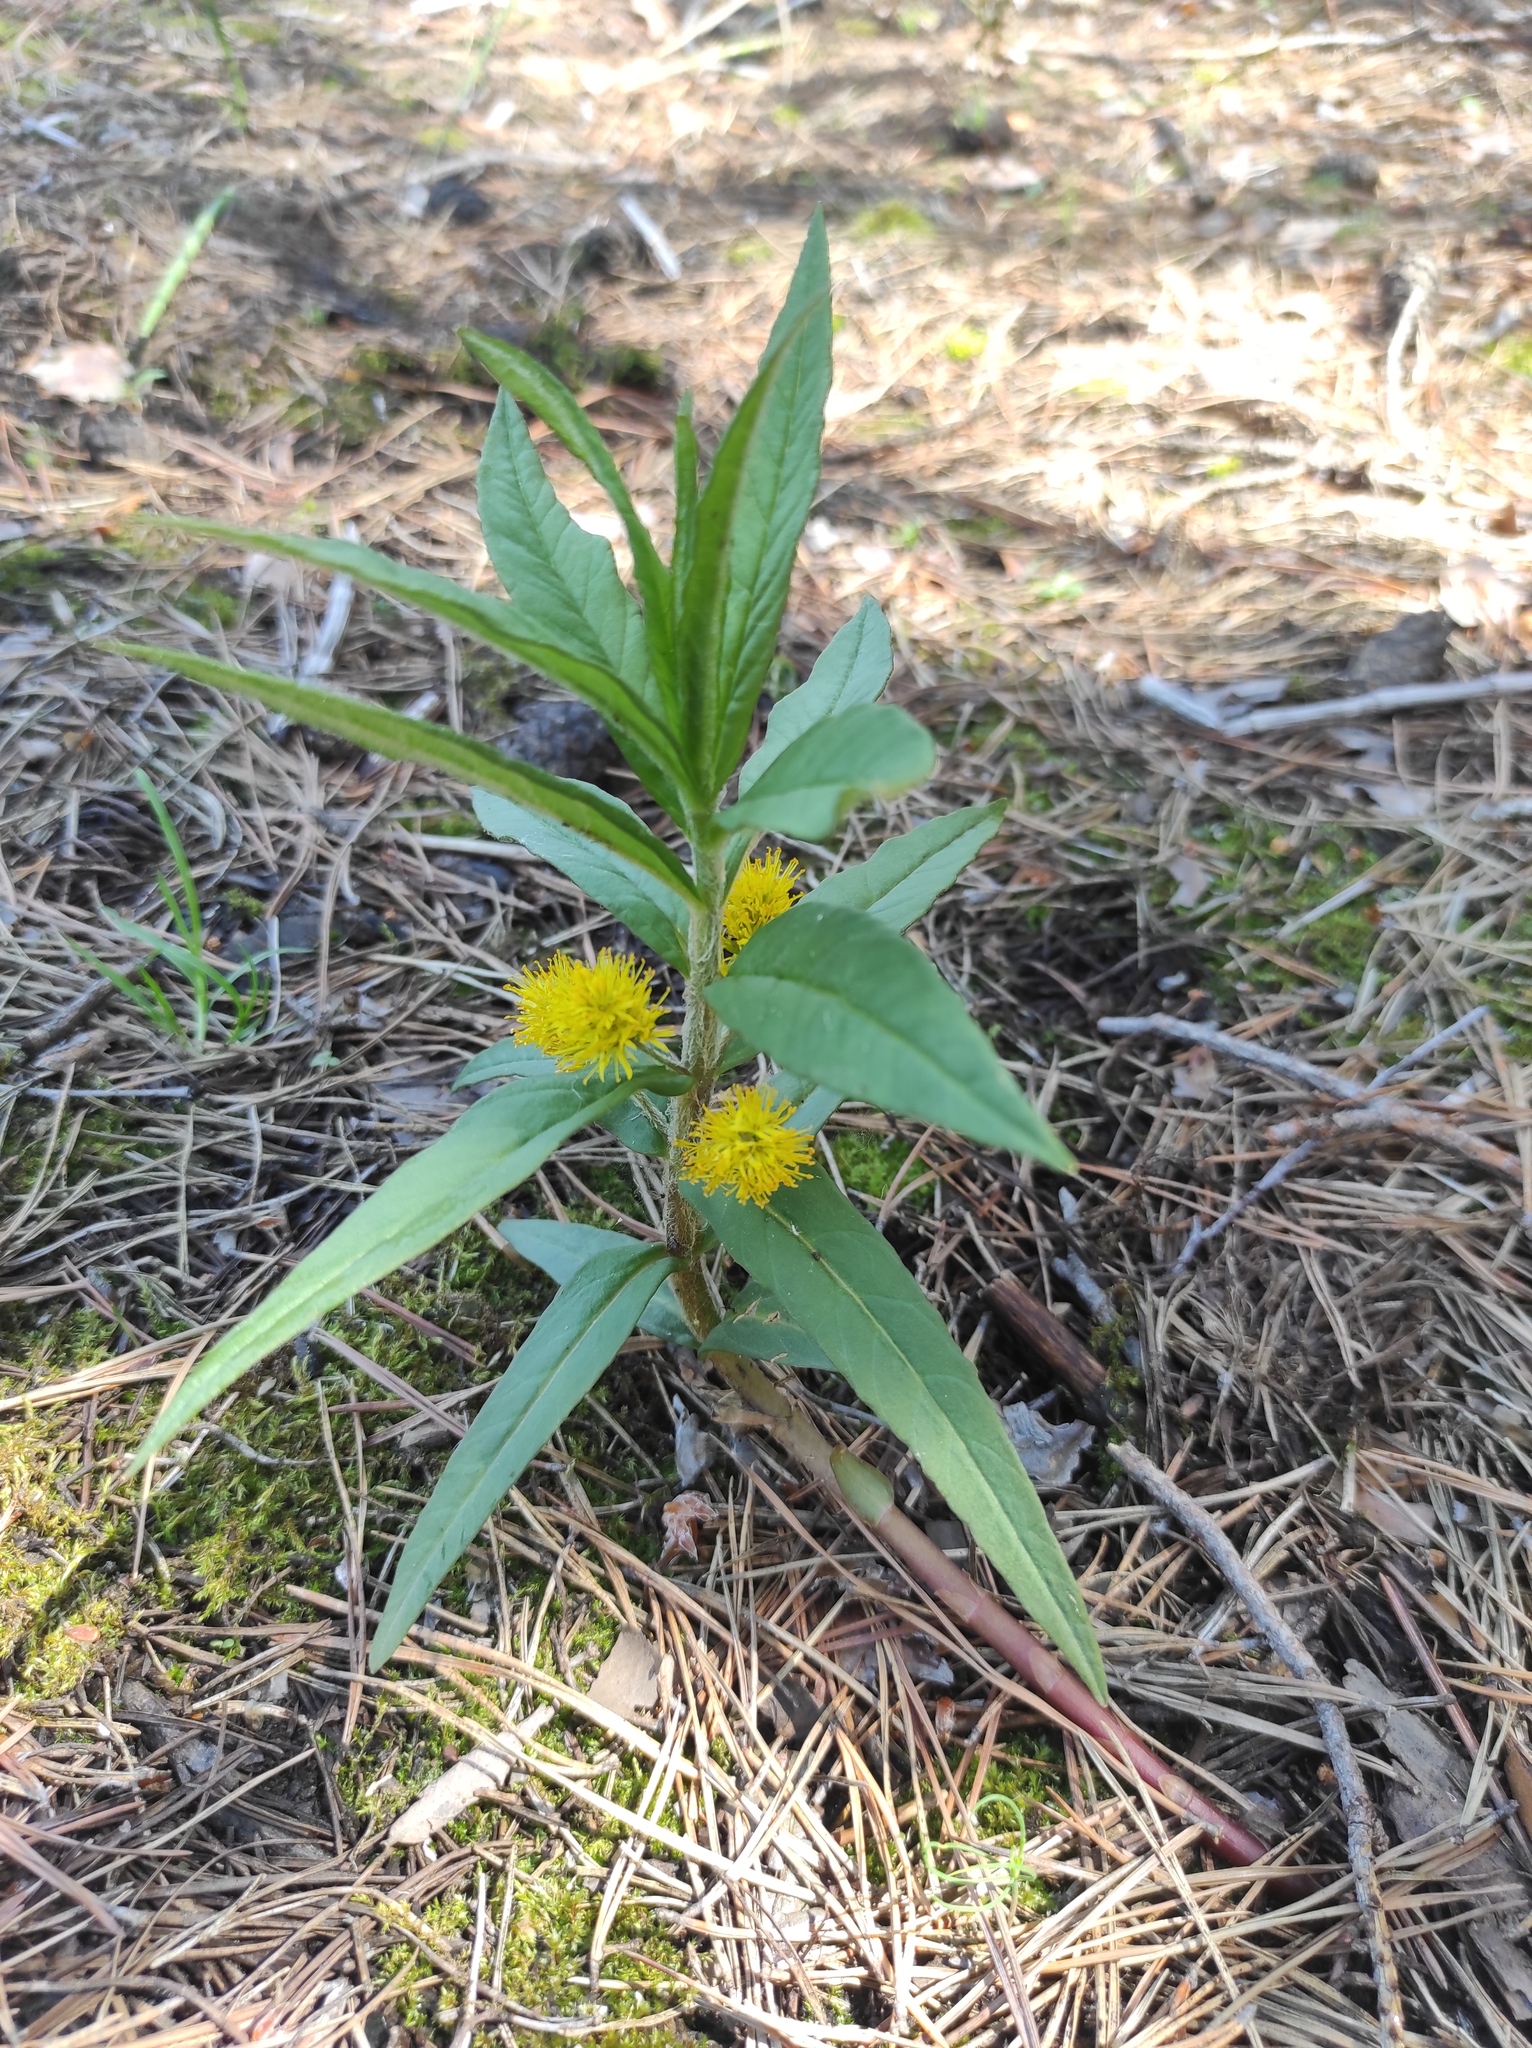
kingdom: Plantae
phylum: Tracheophyta
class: Magnoliopsida
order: Ericales
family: Primulaceae
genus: Lysimachia
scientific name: Lysimachia thyrsiflora
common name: Tufted loosestrife
